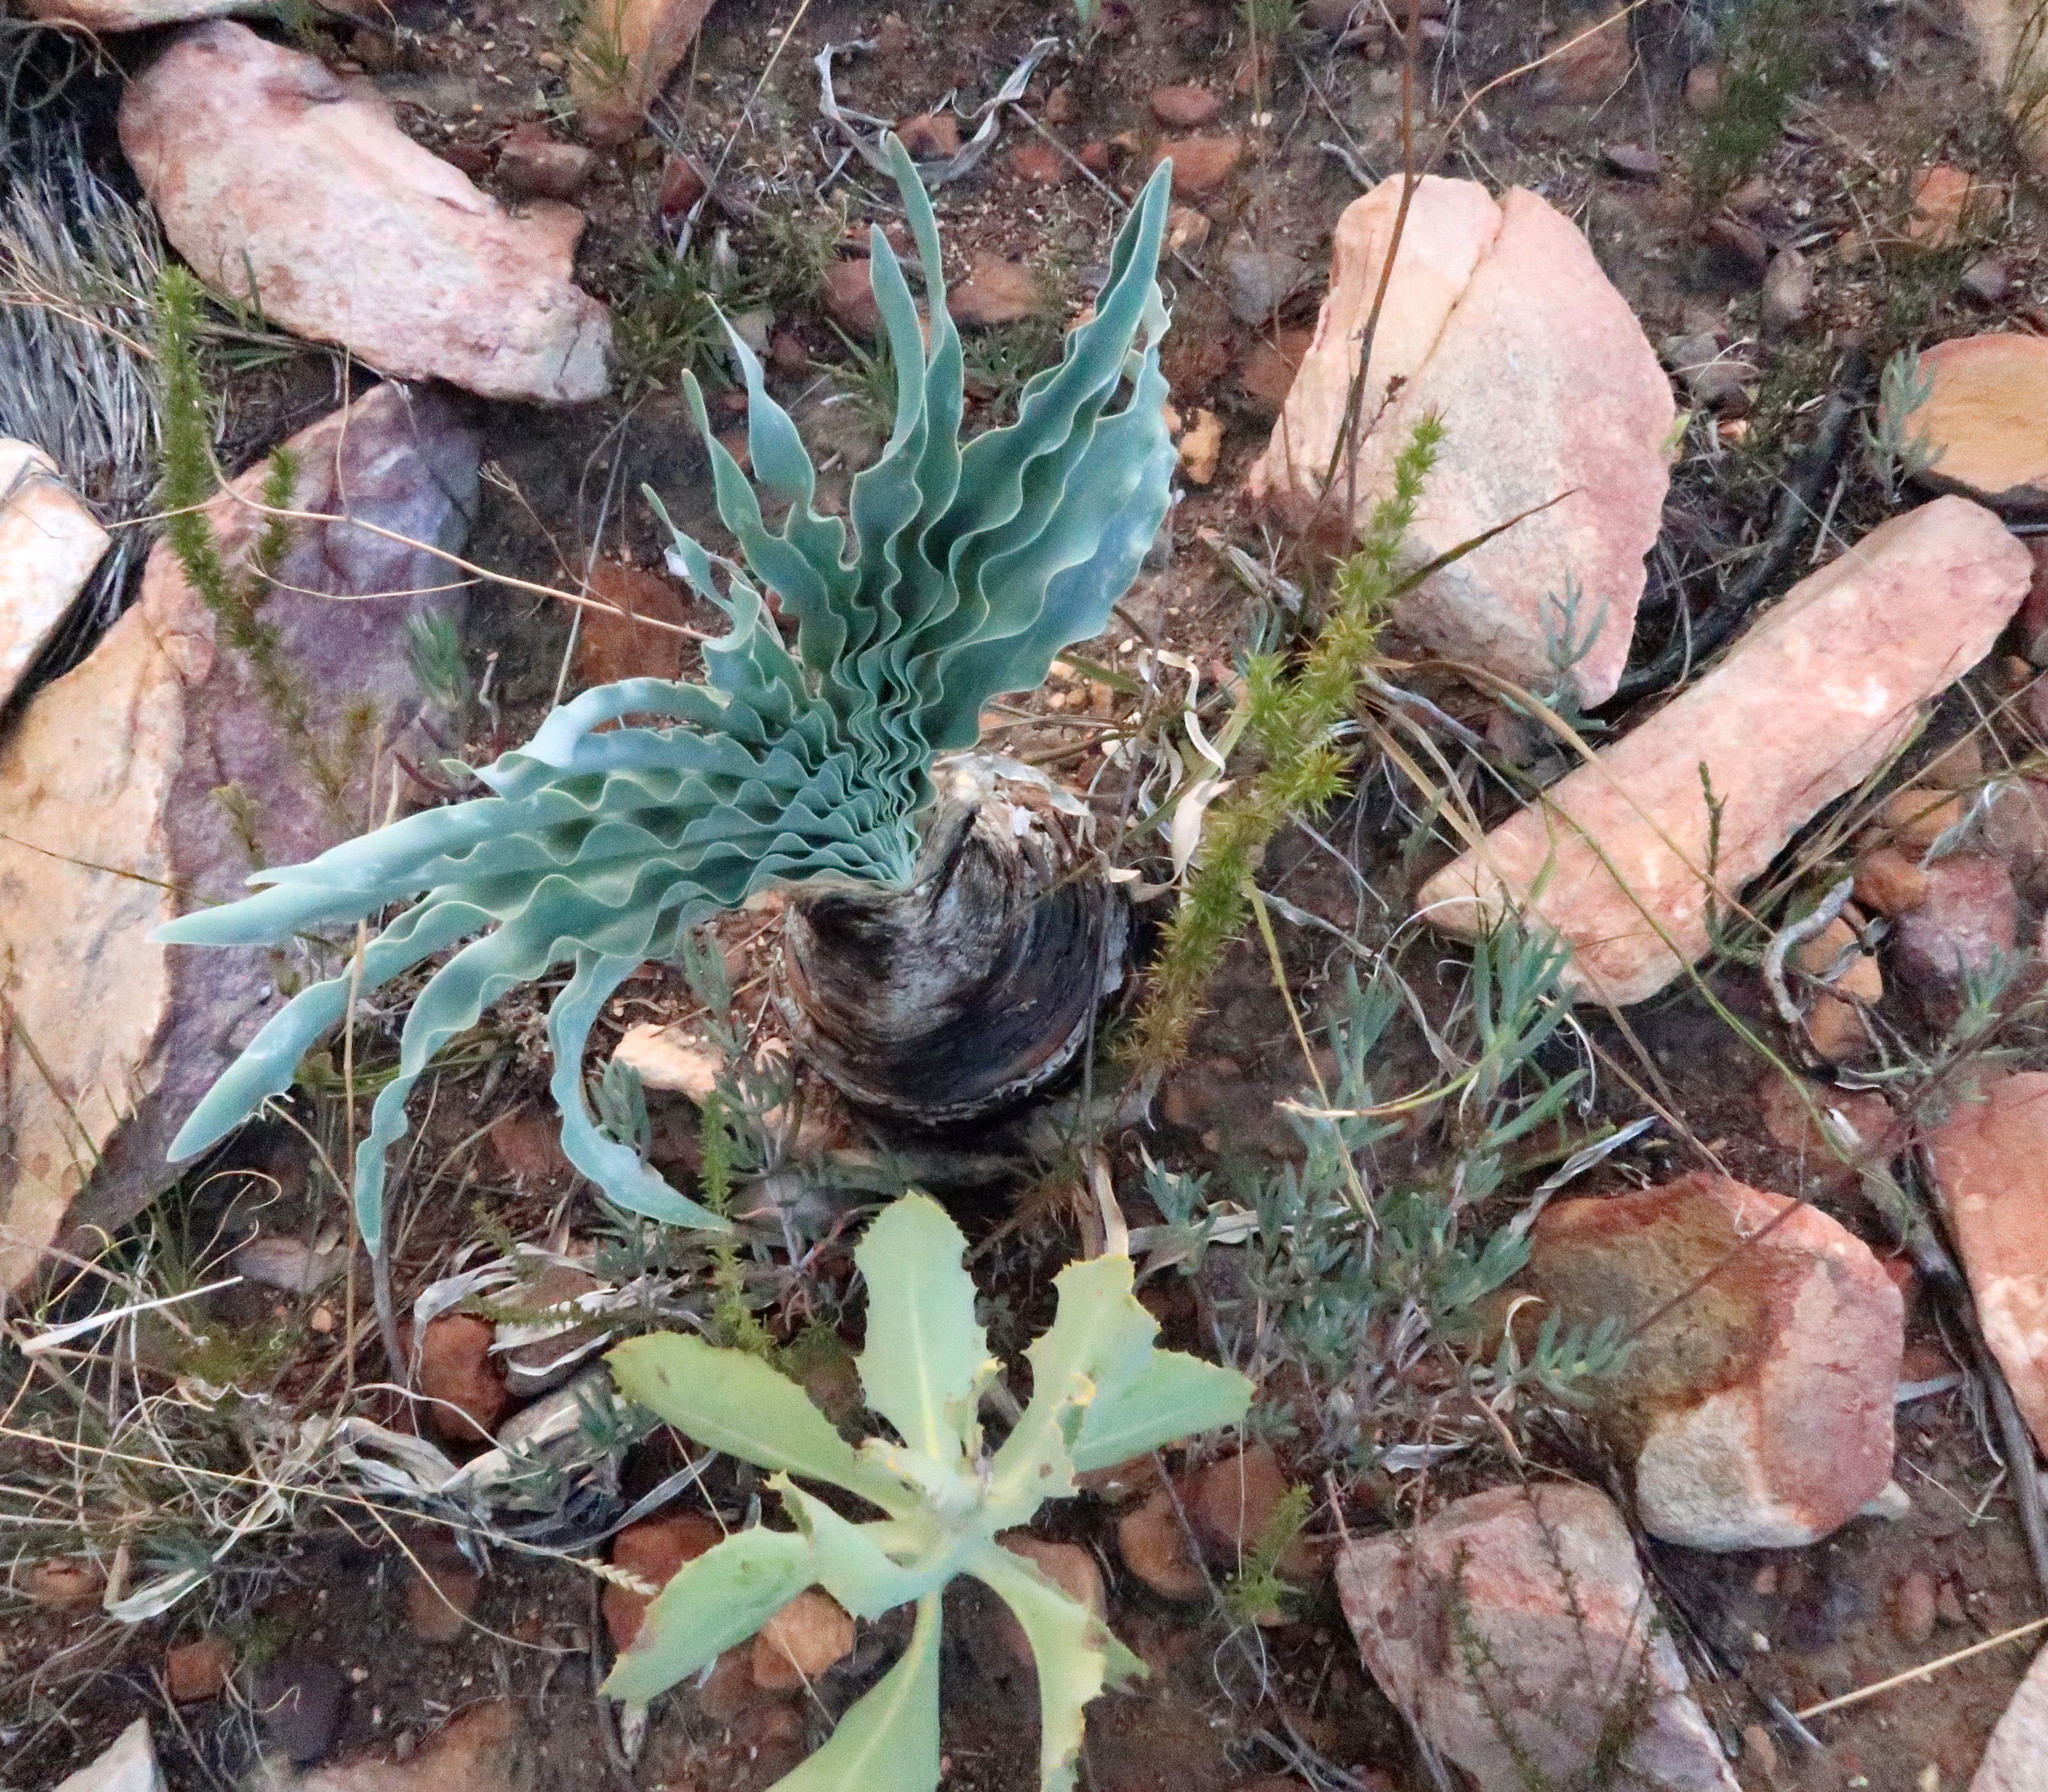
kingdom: Plantae
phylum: Tracheophyta
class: Liliopsida
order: Asparagales
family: Amaryllidaceae
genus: Boophone
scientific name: Boophone disticha
